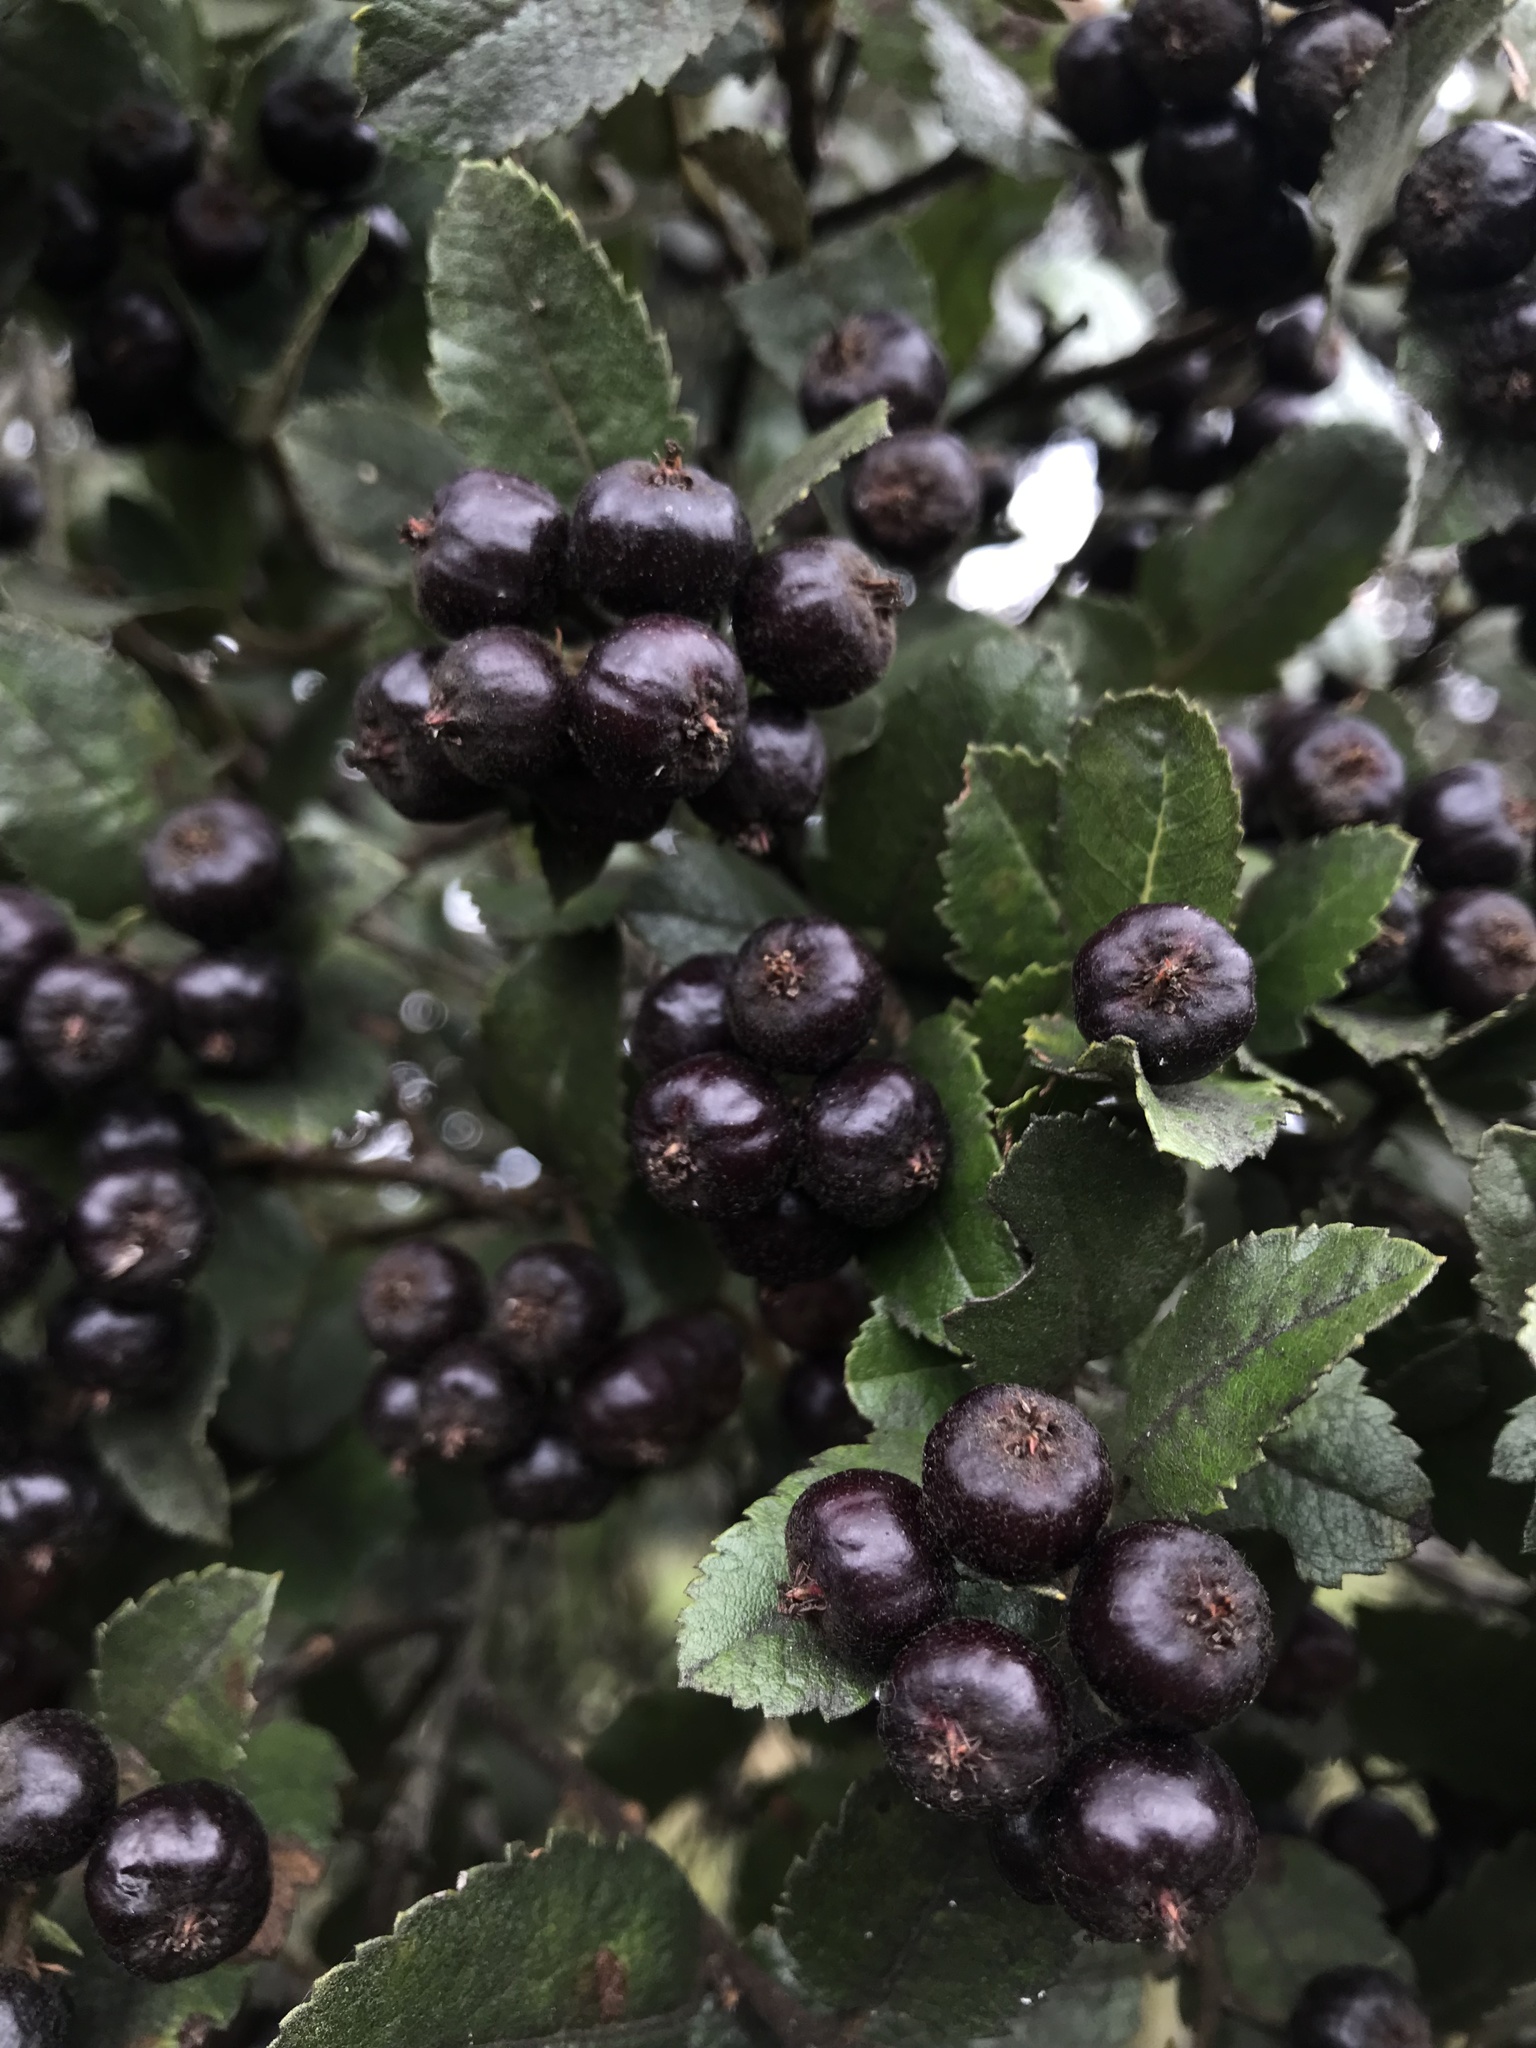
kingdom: Plantae
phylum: Tracheophyta
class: Magnoliopsida
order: Rosales
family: Rosaceae
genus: Hesperomeles
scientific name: Hesperomeles goudotiana
